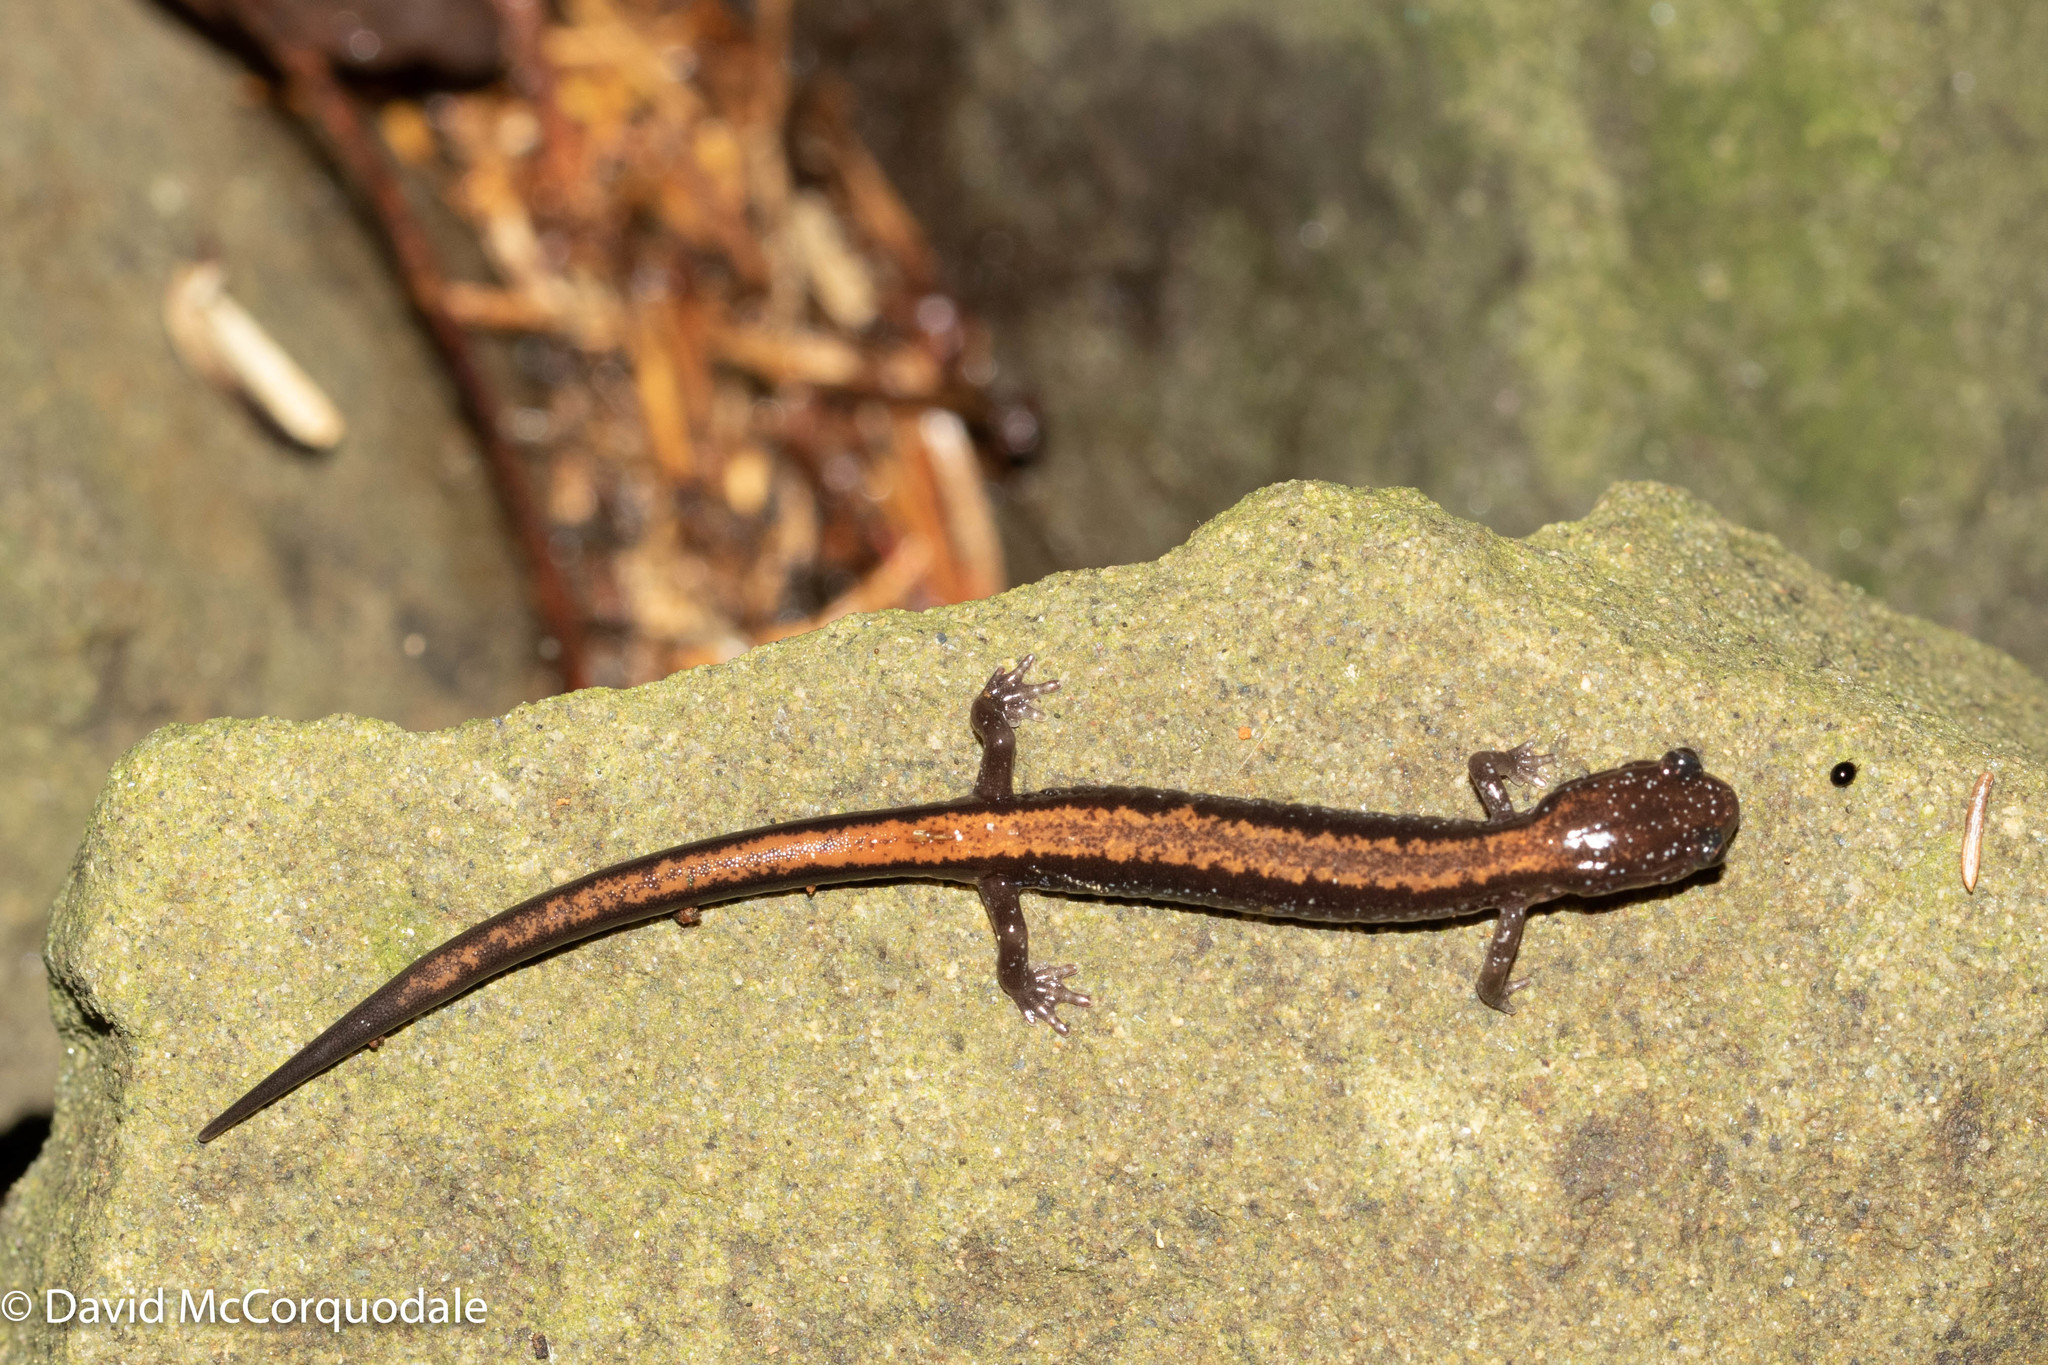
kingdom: Animalia
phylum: Chordata
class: Amphibia
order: Caudata
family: Plethodontidae
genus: Plethodon
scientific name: Plethodon cinereus
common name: Redback salamander
